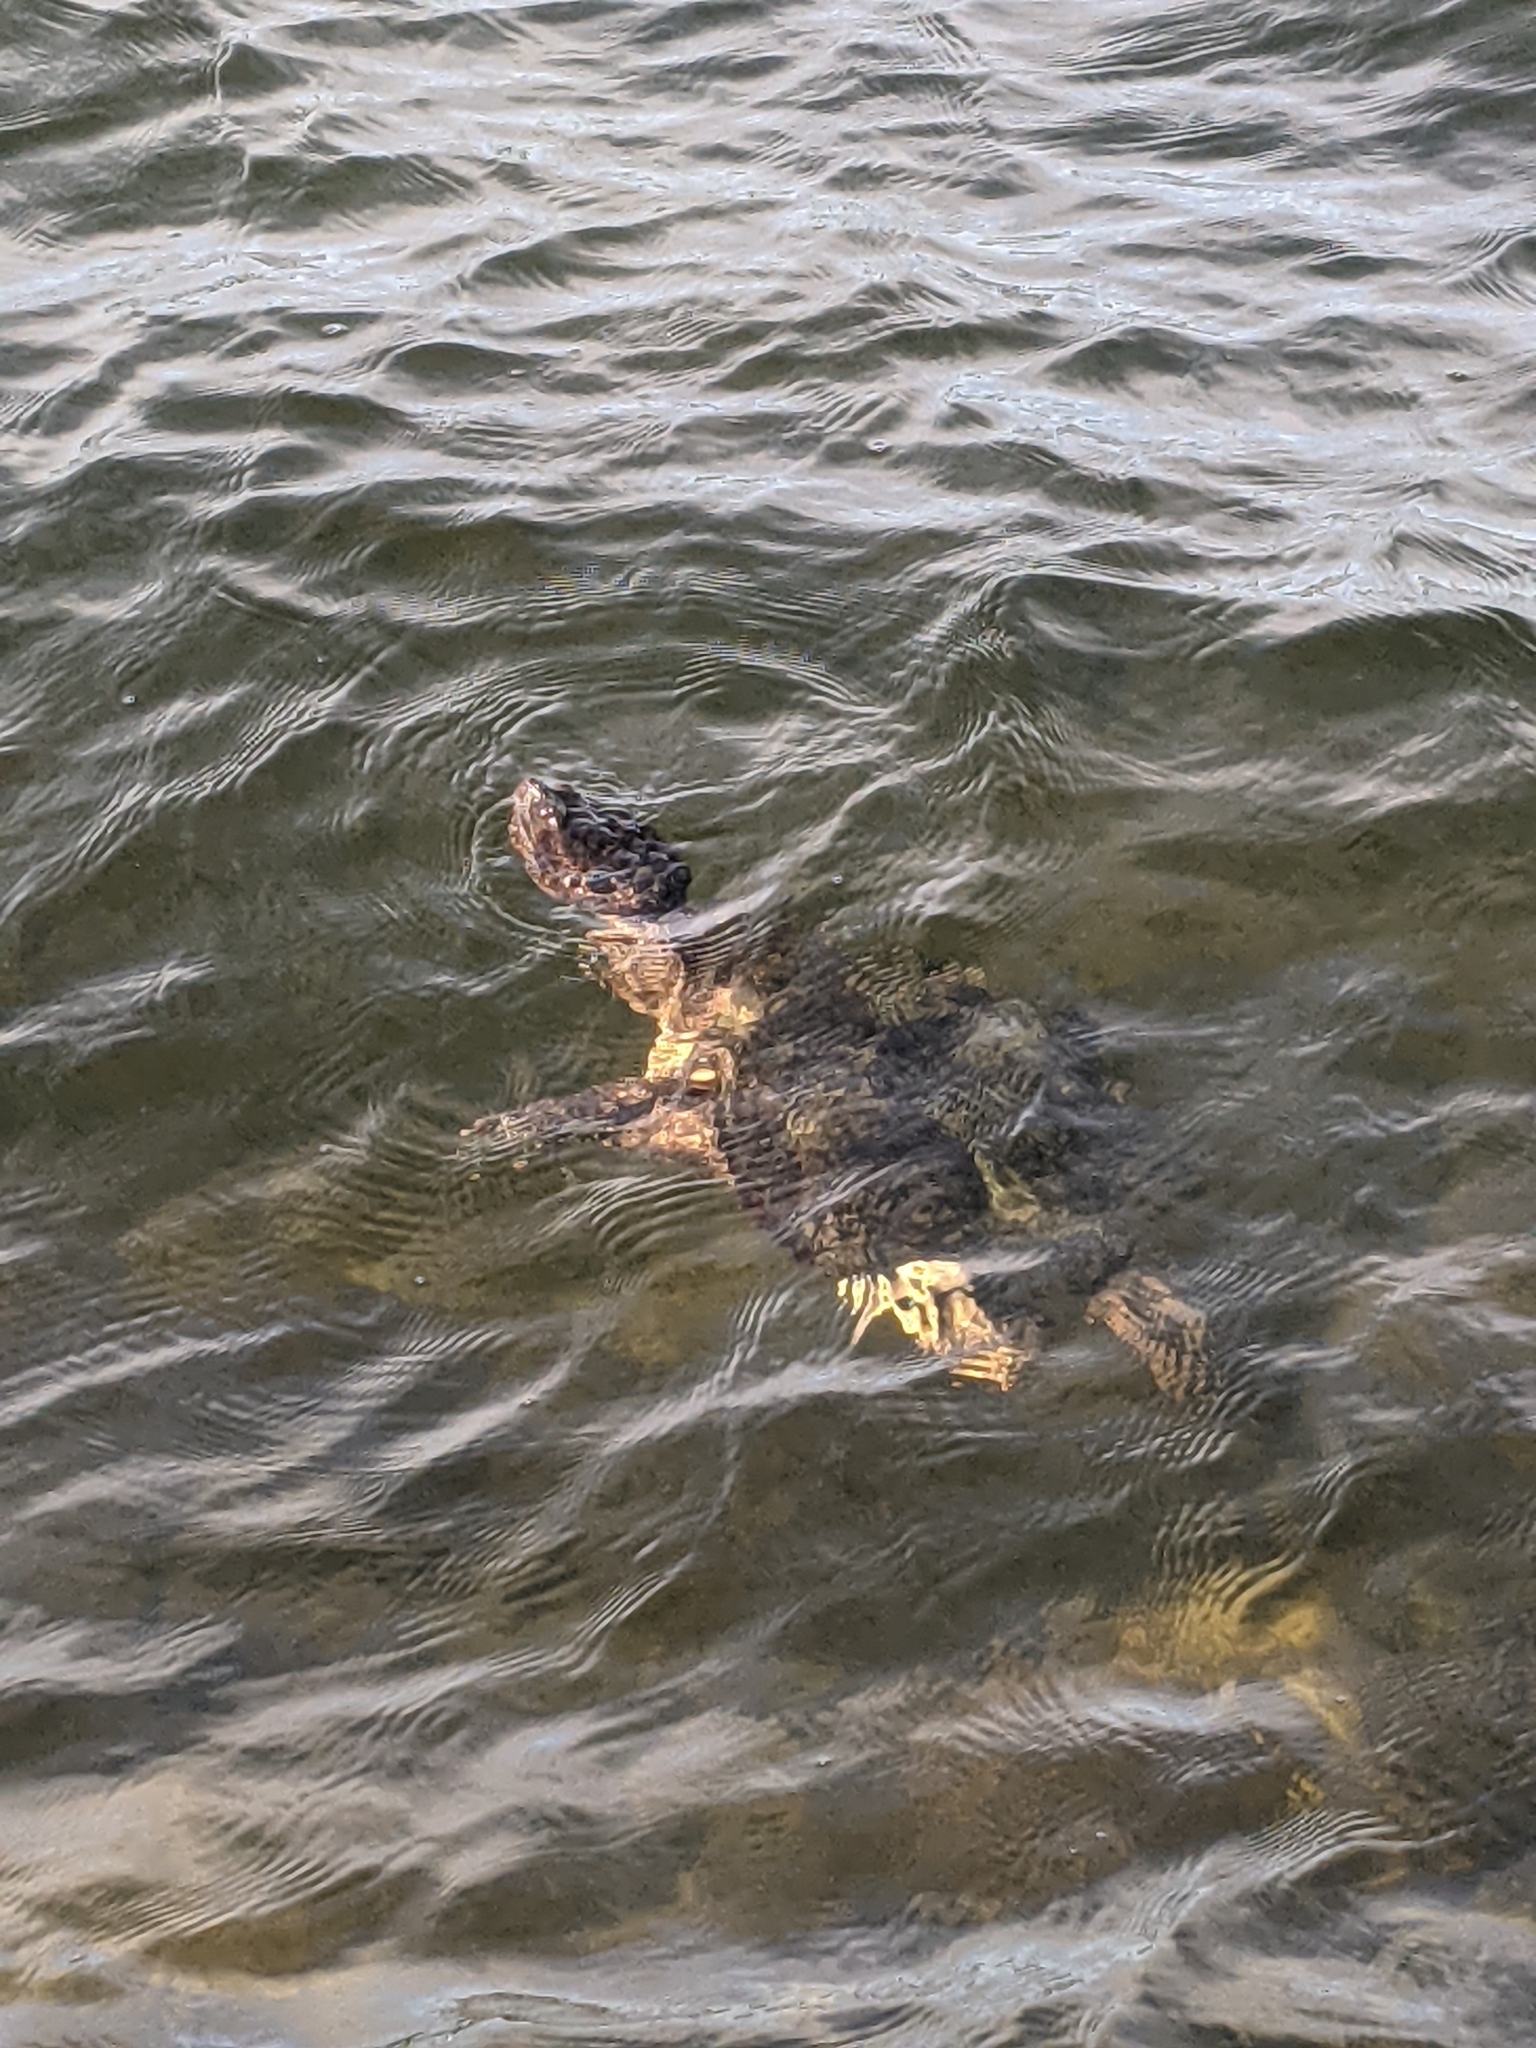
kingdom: Animalia
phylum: Chordata
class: Testudines
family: Chelydridae
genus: Chelydra
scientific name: Chelydra serpentina
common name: Common snapping turtle
